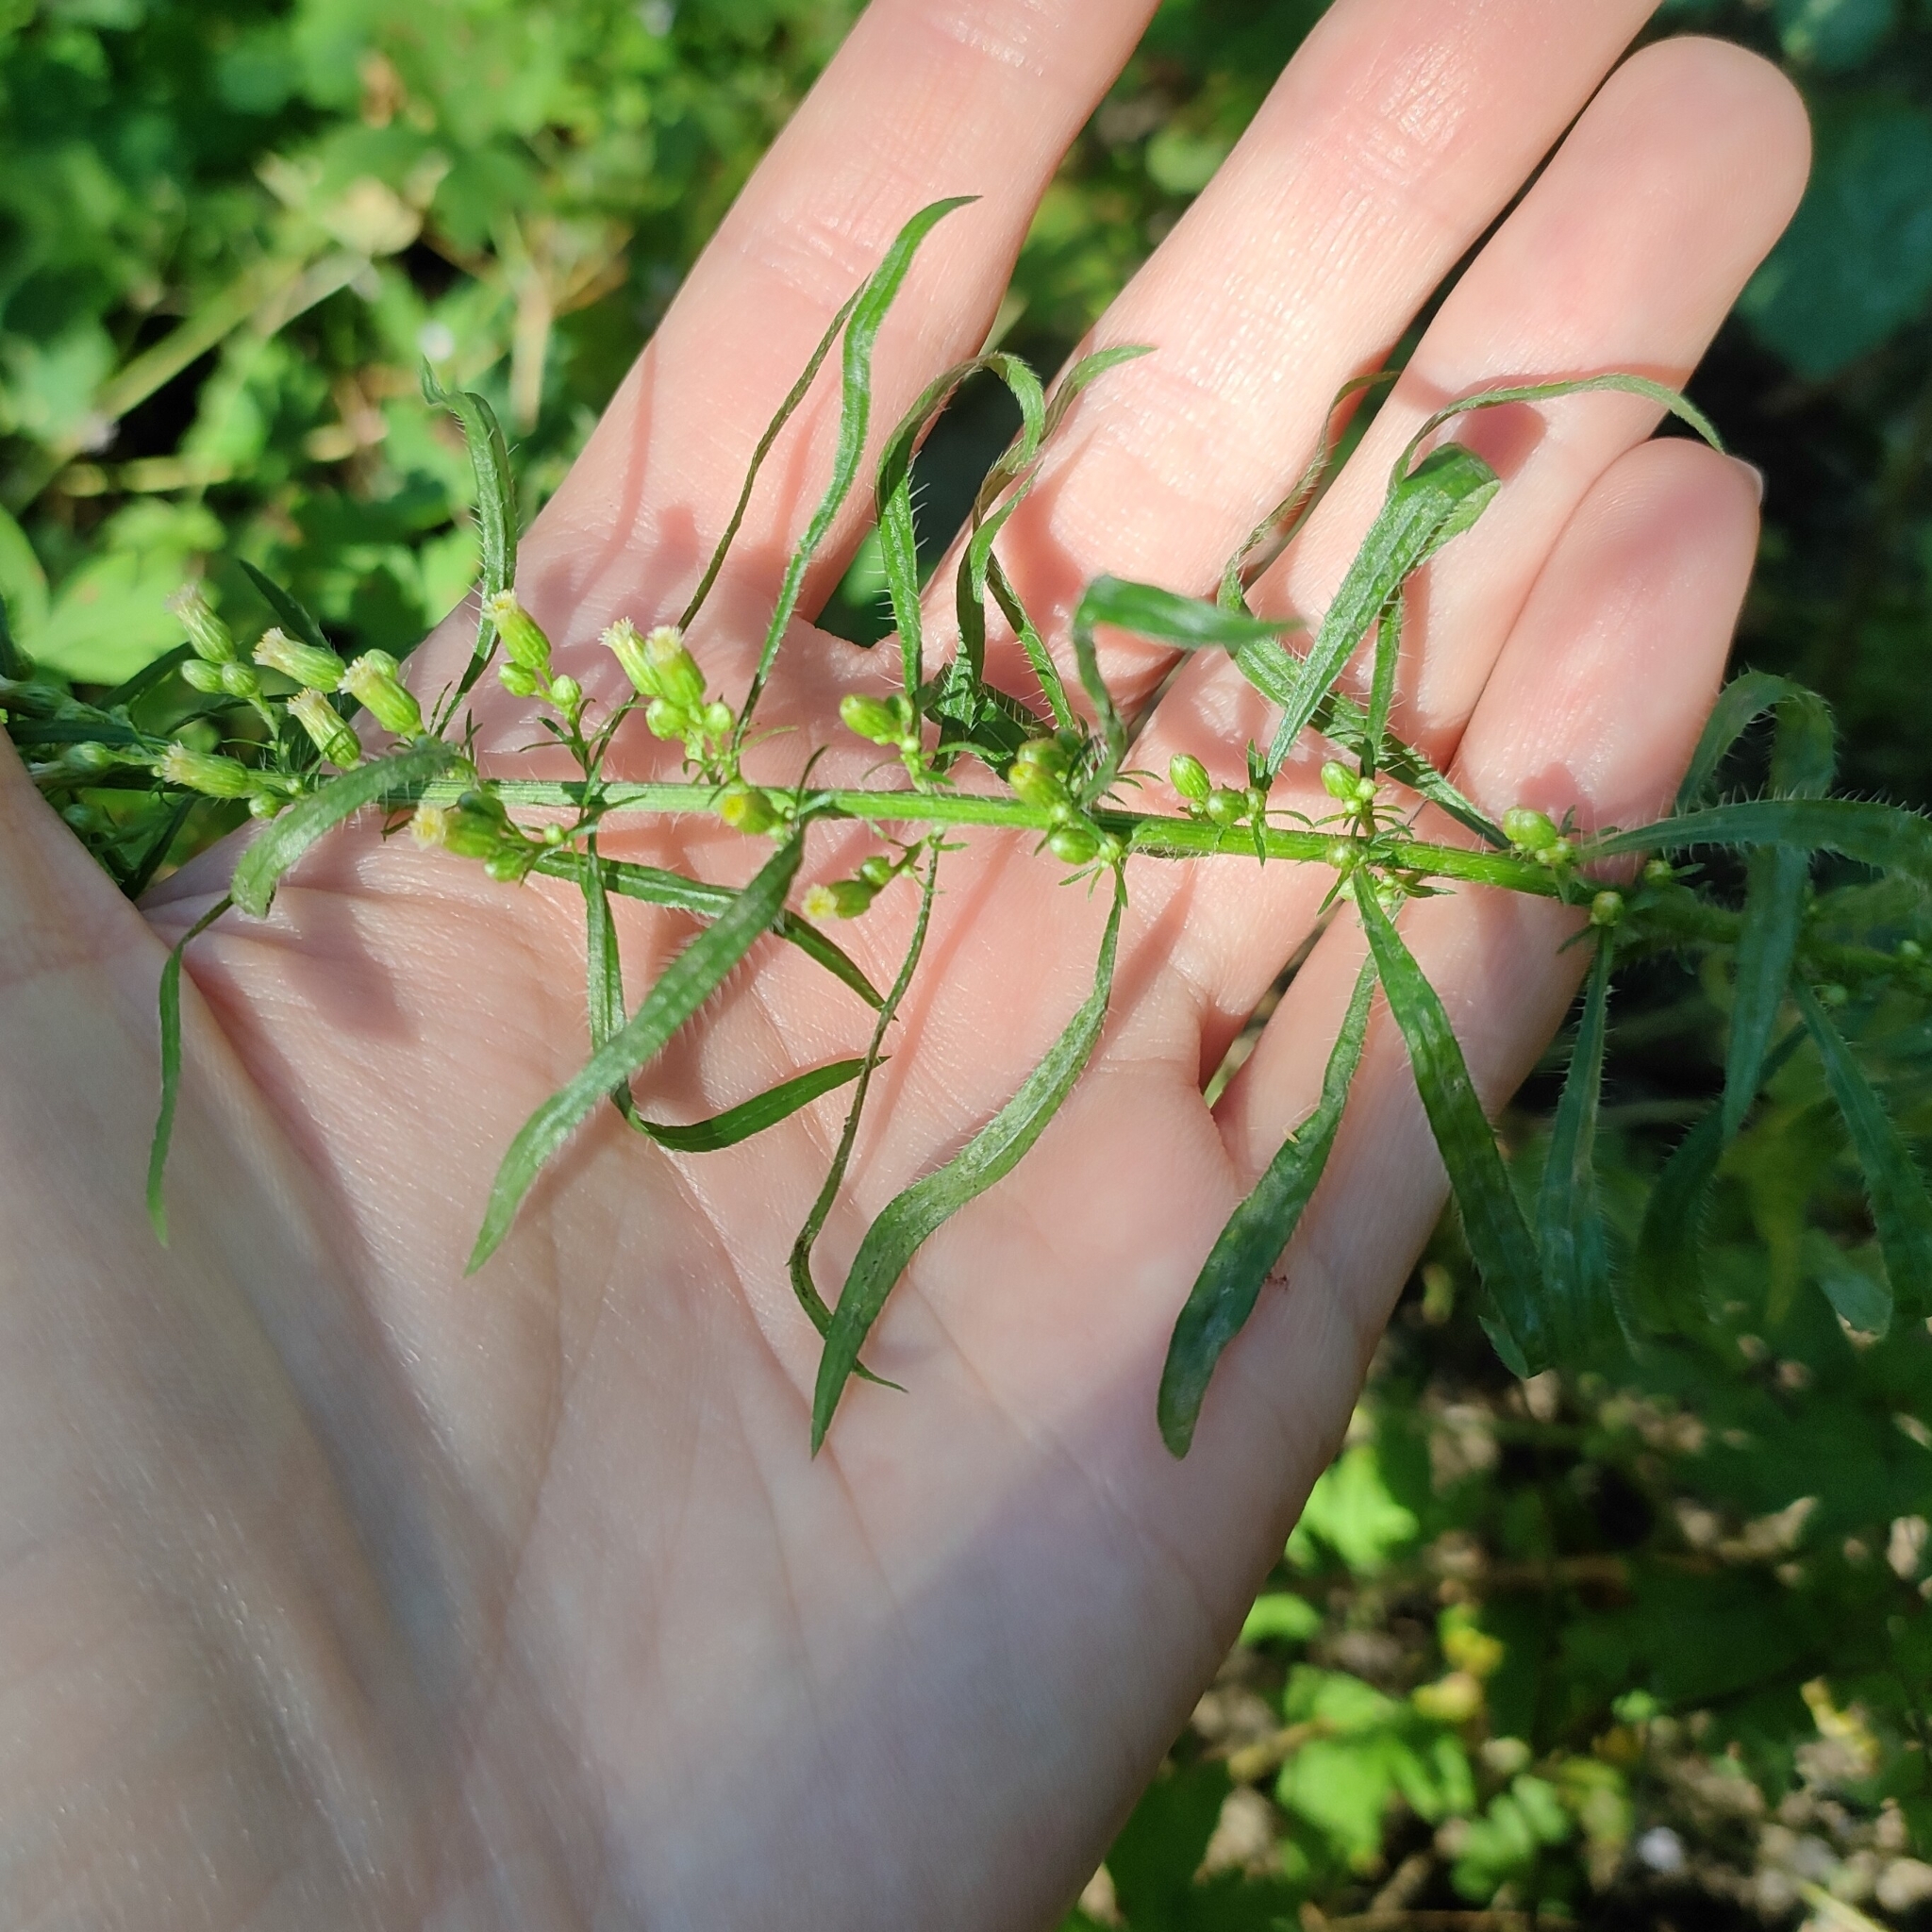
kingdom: Plantae
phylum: Tracheophyta
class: Magnoliopsida
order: Asterales
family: Asteraceae
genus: Erigeron
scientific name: Erigeron canadensis
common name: Canadian fleabane
